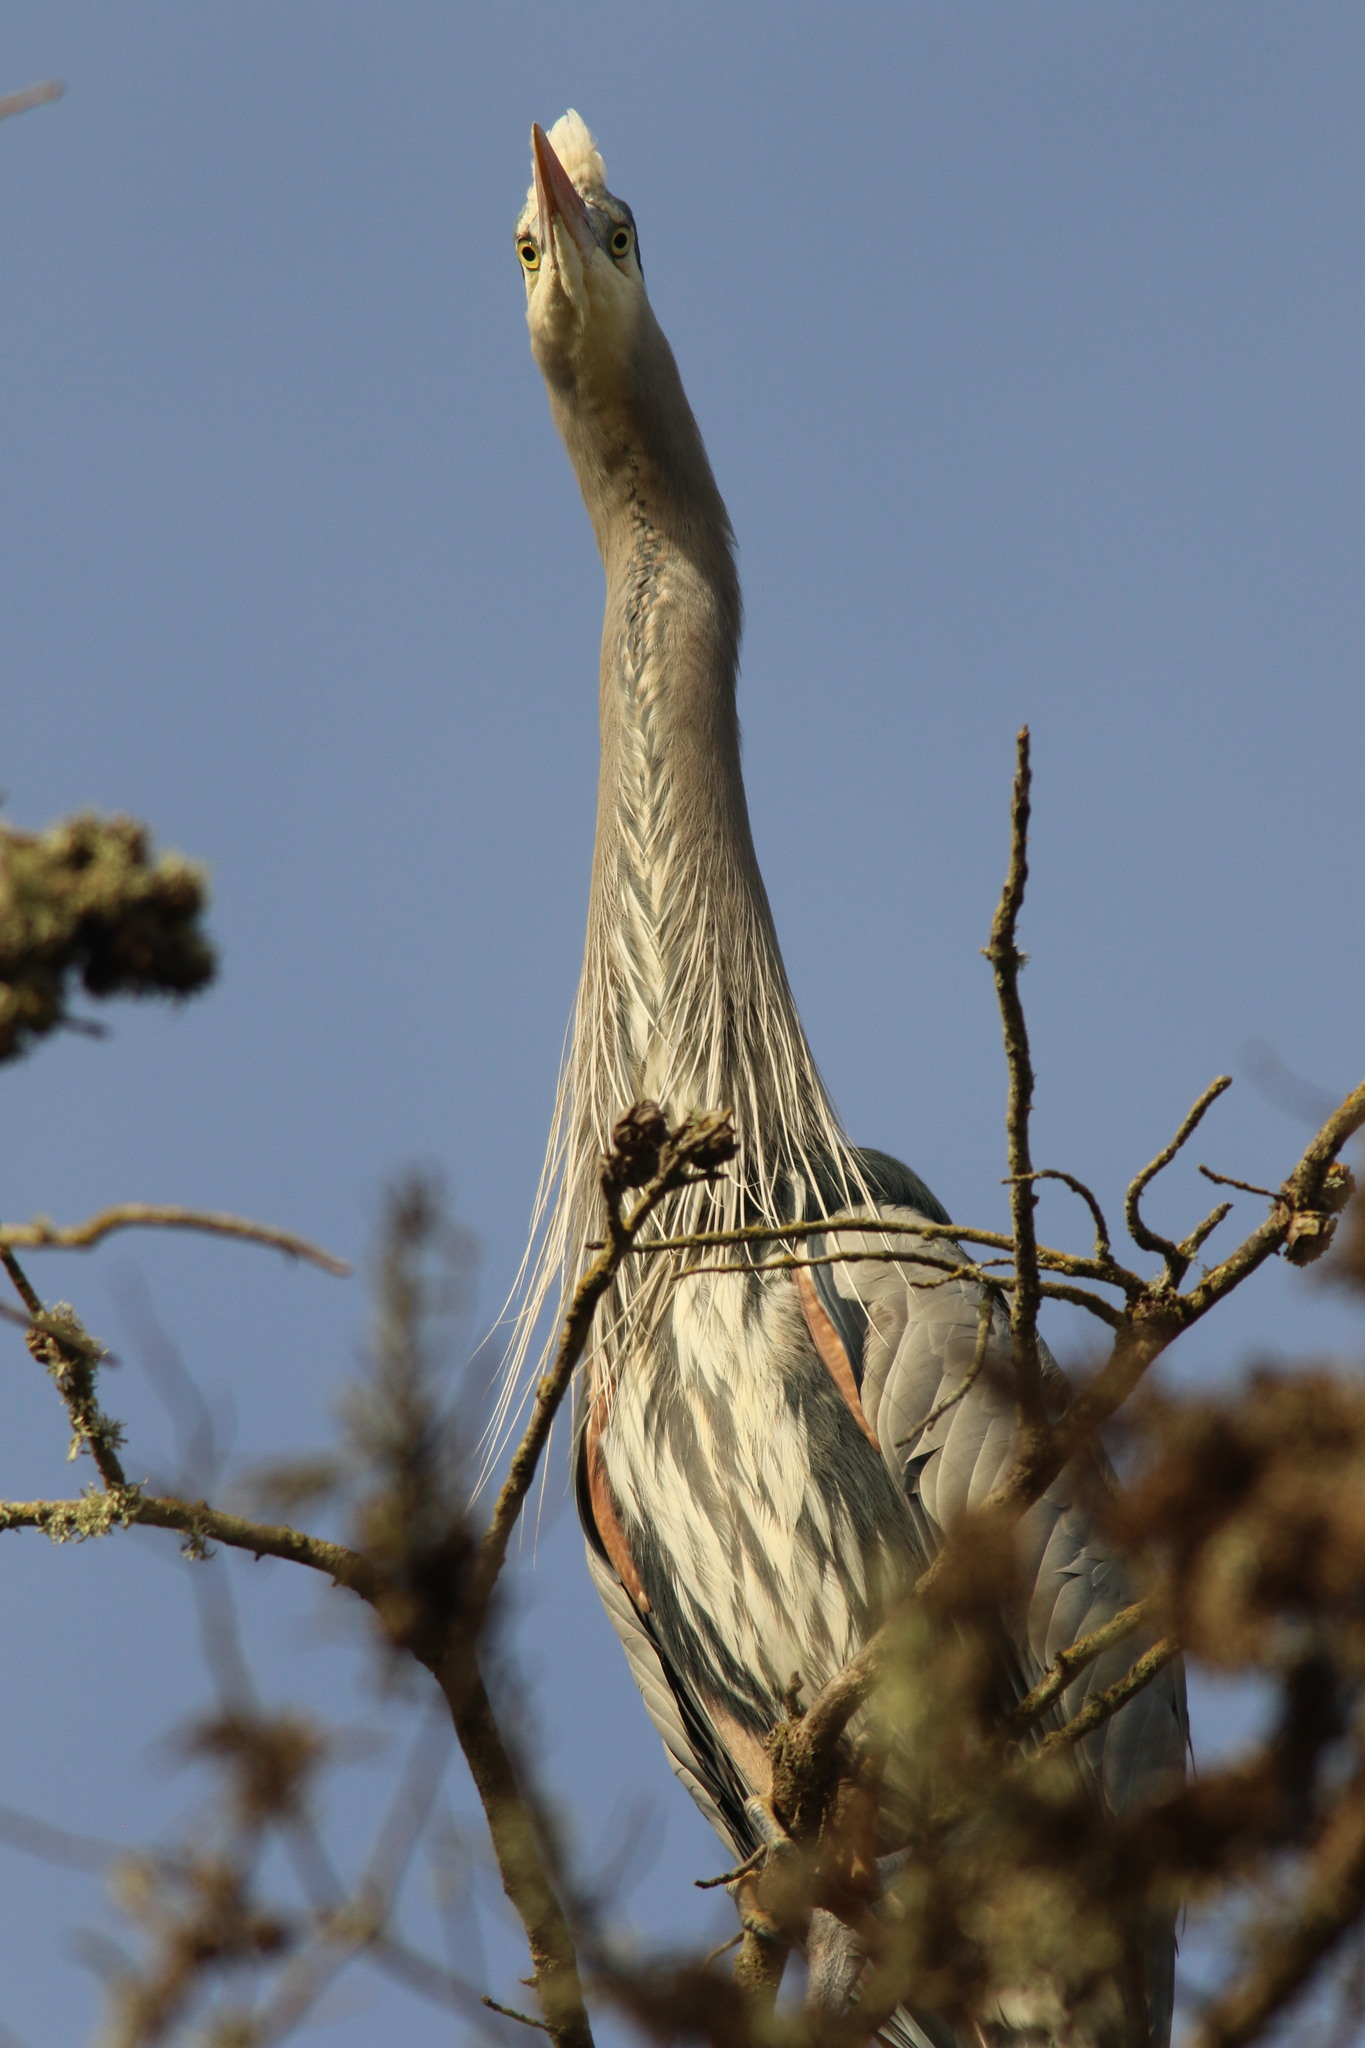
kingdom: Animalia
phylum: Chordata
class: Aves
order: Pelecaniformes
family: Ardeidae
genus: Ardea
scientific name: Ardea herodias
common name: Great blue heron
